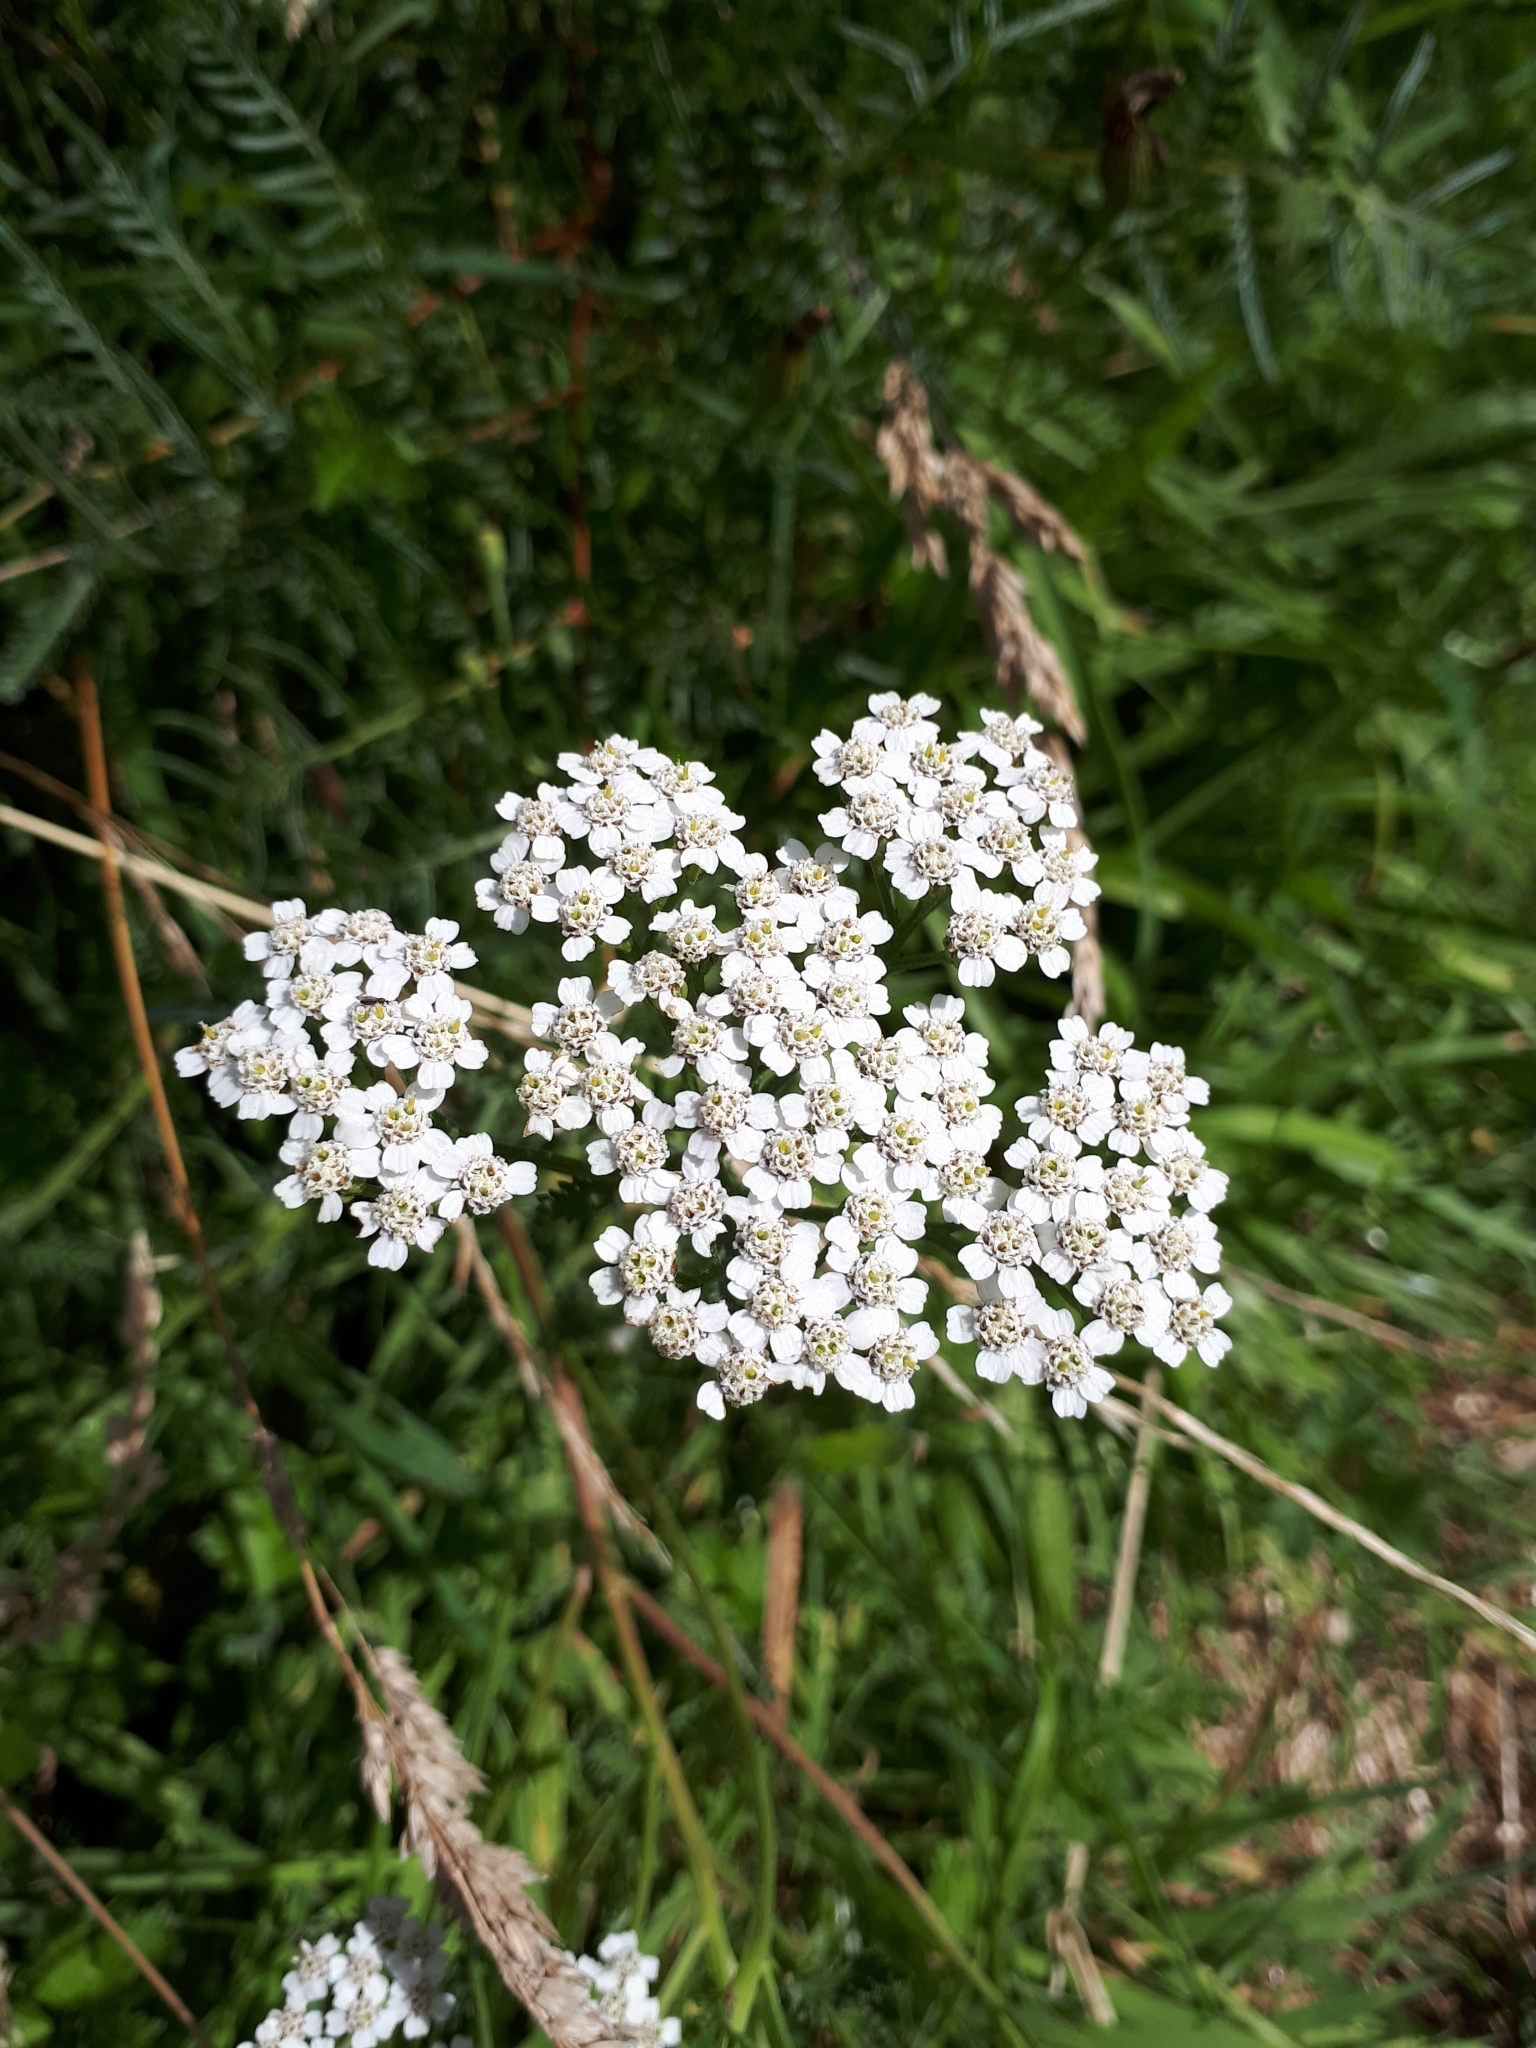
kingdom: Plantae
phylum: Tracheophyta
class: Magnoliopsida
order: Asterales
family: Asteraceae
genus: Achillea
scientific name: Achillea millefolium
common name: Yarrow
